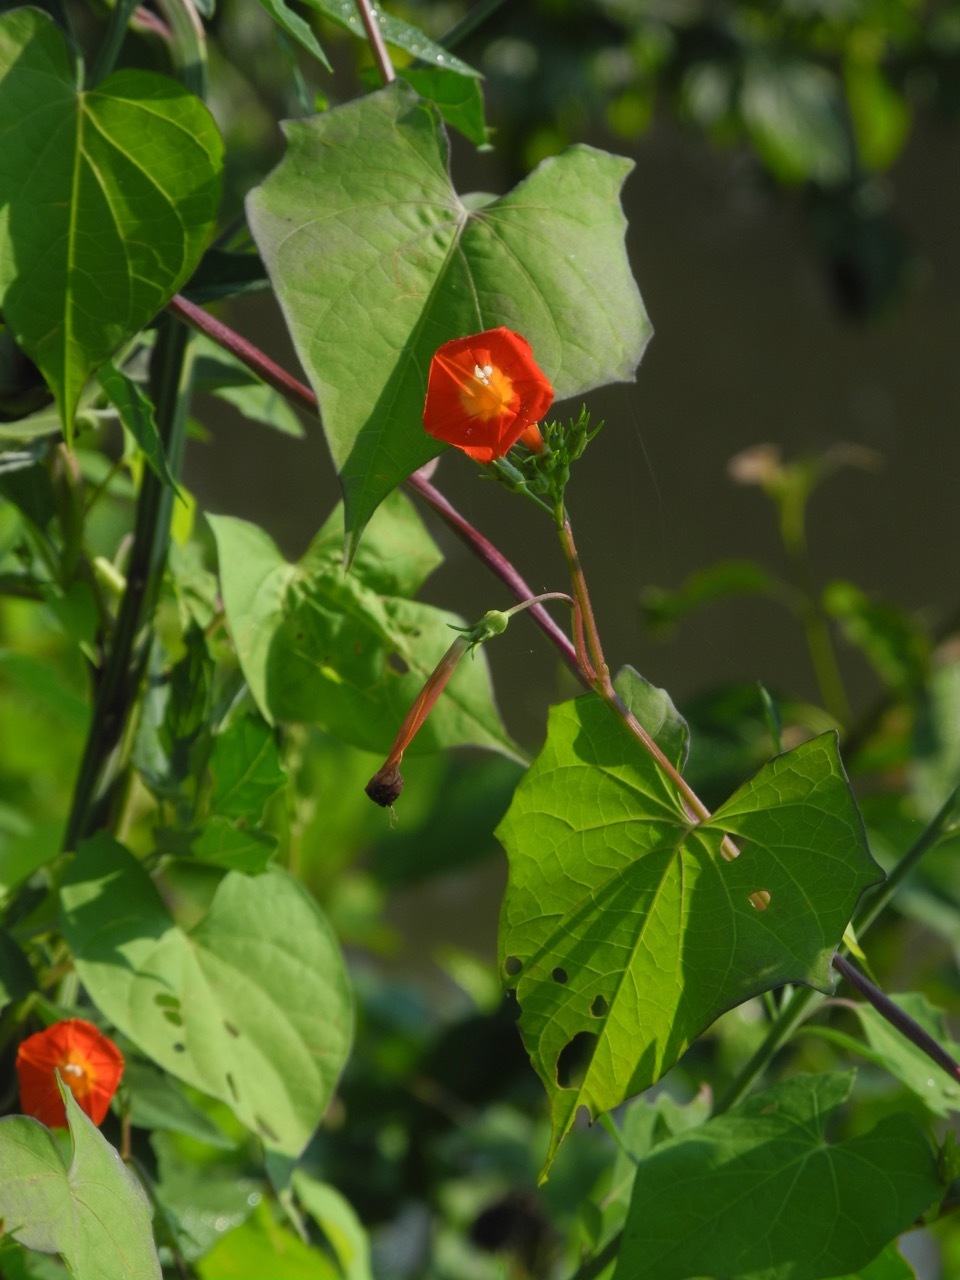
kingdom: Plantae
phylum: Tracheophyta
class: Magnoliopsida
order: Solanales
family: Convolvulaceae
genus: Ipomoea
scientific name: Ipomoea coccinea
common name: Red morning-glory
